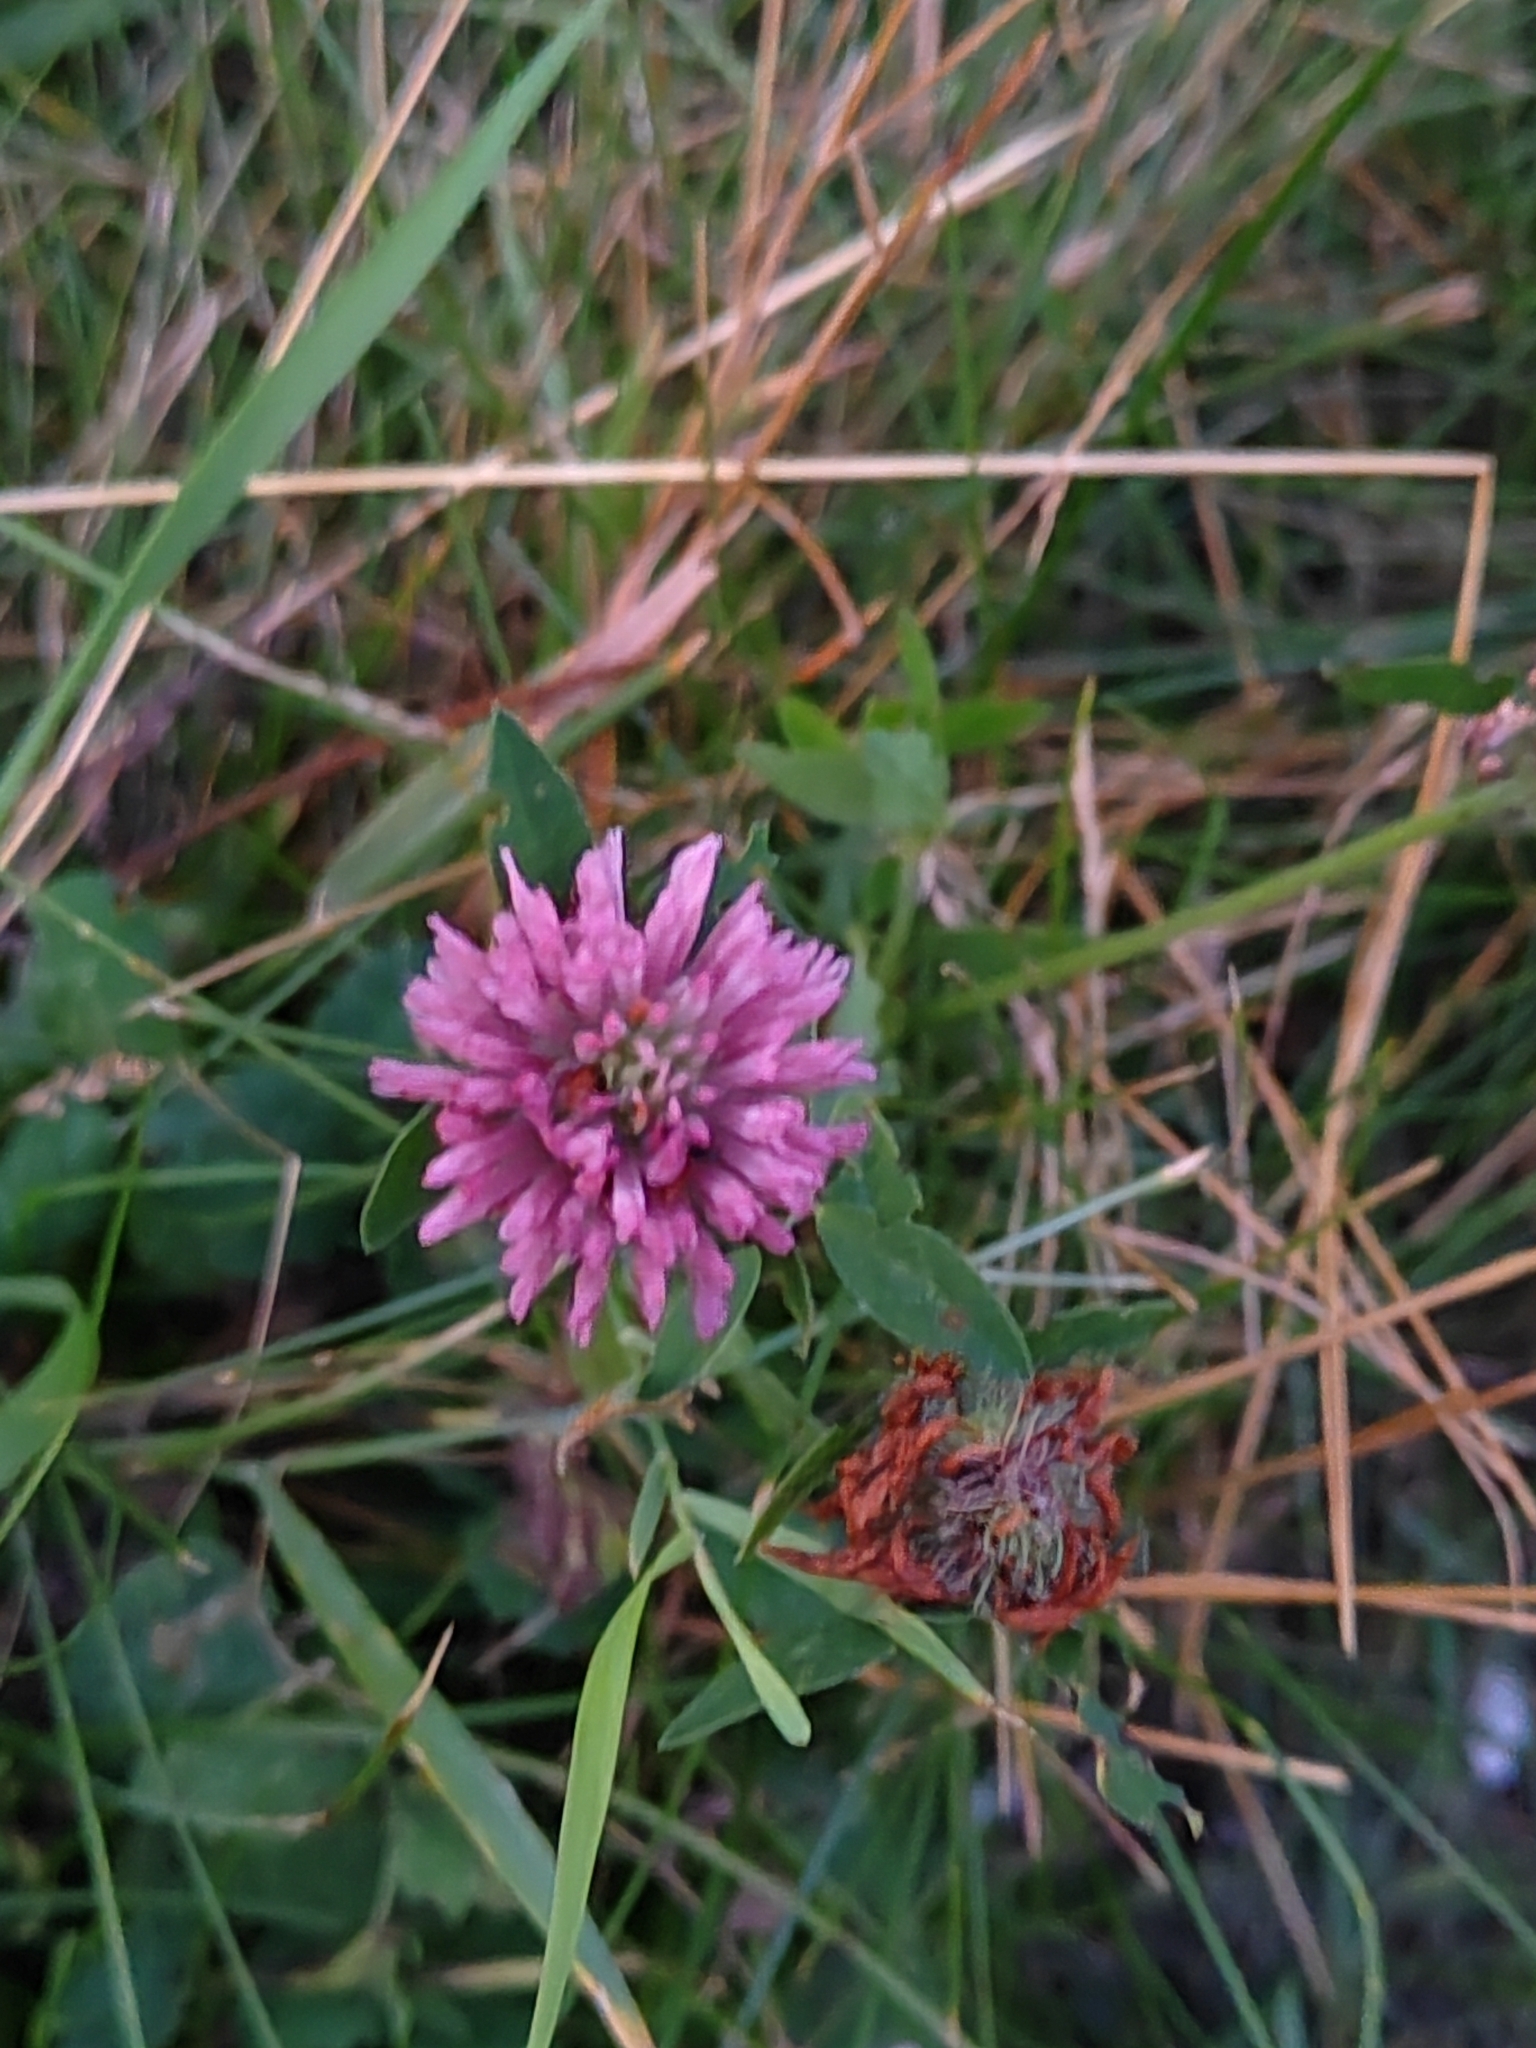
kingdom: Plantae
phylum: Tracheophyta
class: Magnoliopsida
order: Fabales
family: Fabaceae
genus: Trifolium
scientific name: Trifolium pratense
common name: Red clover
